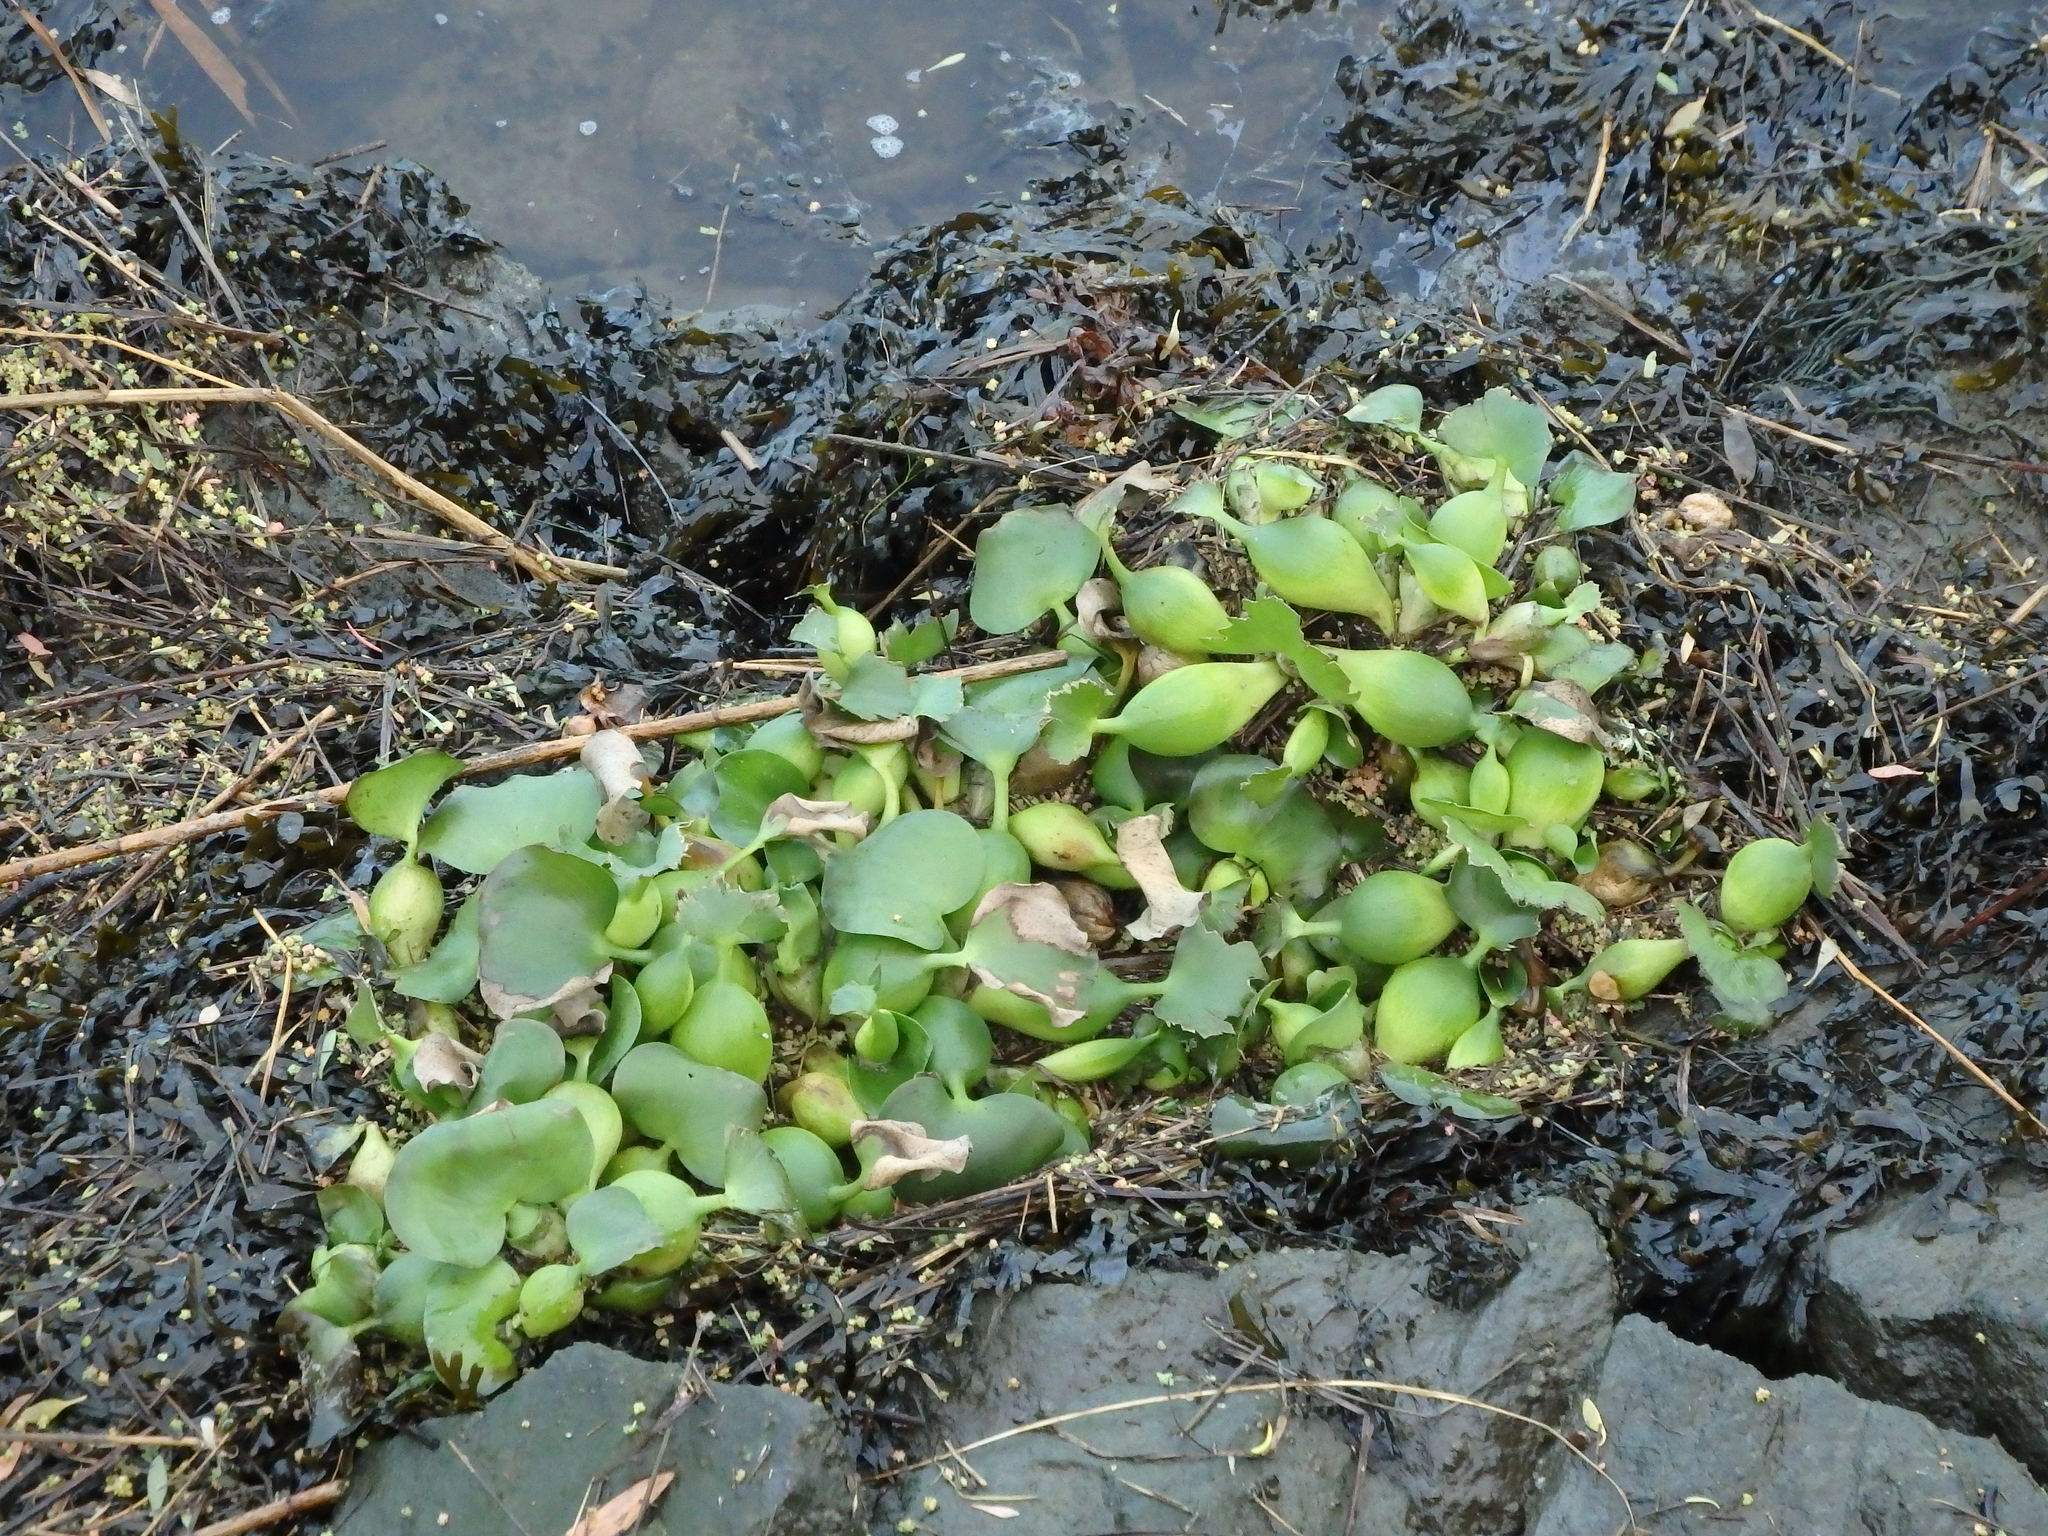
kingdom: Plantae
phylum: Tracheophyta
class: Liliopsida
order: Commelinales
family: Pontederiaceae
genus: Pontederia
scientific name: Pontederia crassipes
